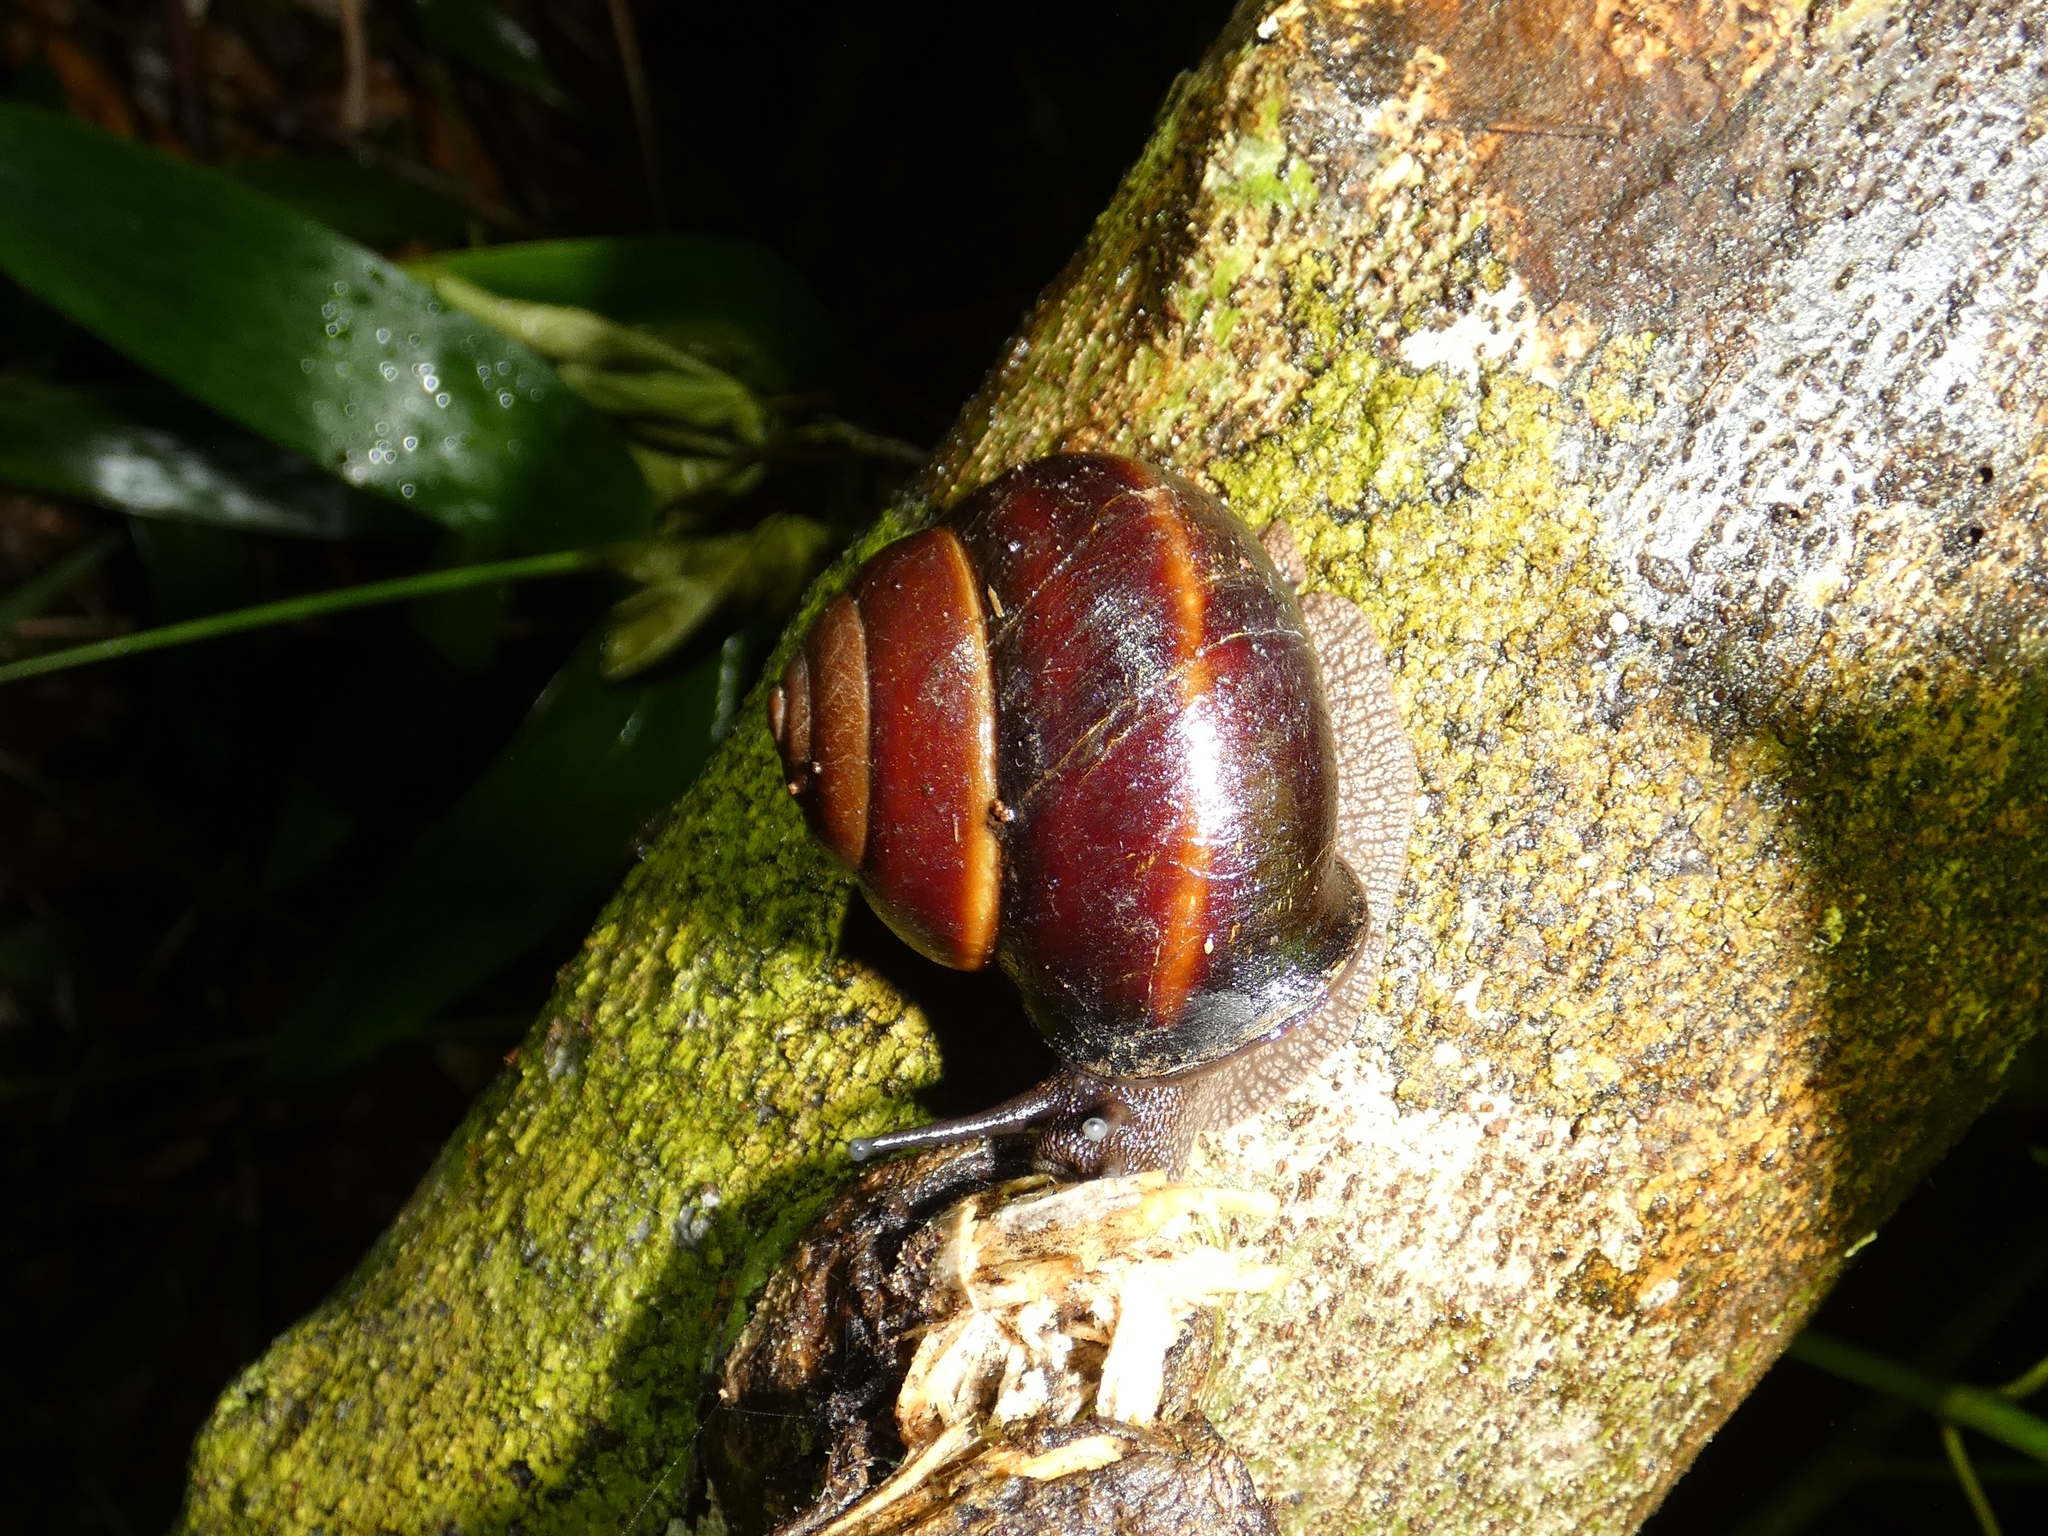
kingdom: Animalia
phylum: Mollusca
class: Gastropoda
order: Stylommatophora
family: Camaenidae
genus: Gnarosophia
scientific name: Gnarosophia bellendenkerensis
